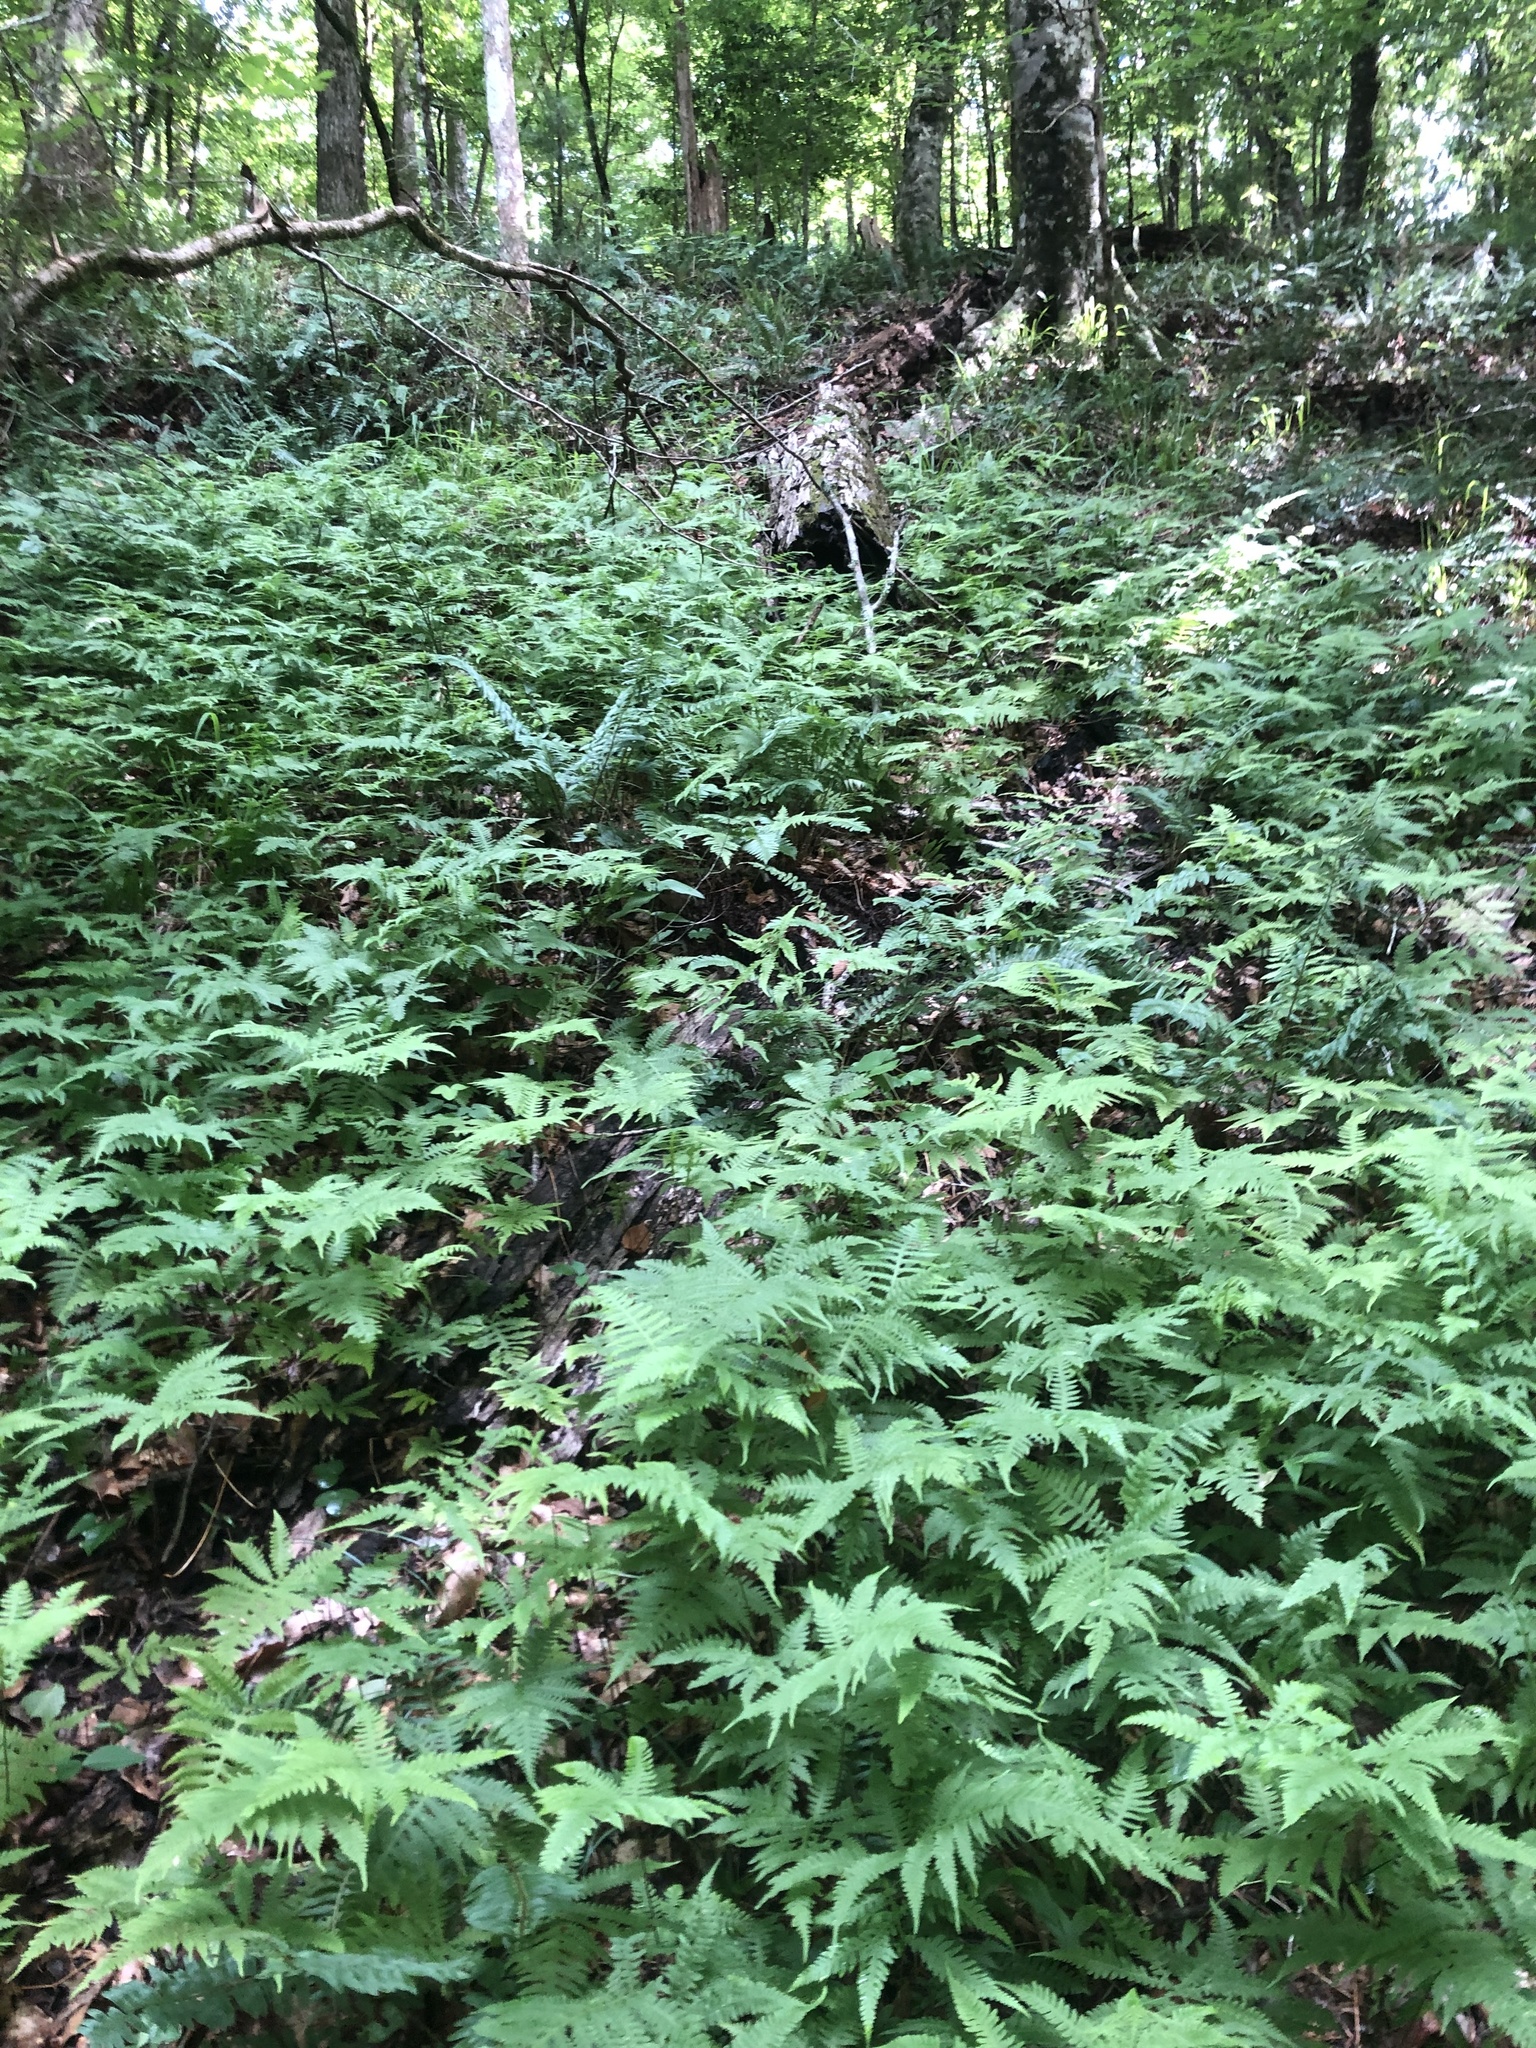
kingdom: Plantae
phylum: Tracheophyta
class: Polypodiopsida
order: Polypodiales
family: Thelypteridaceae
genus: Phegopteris
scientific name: Phegopteris hexagonoptera
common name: Broad beech fern
